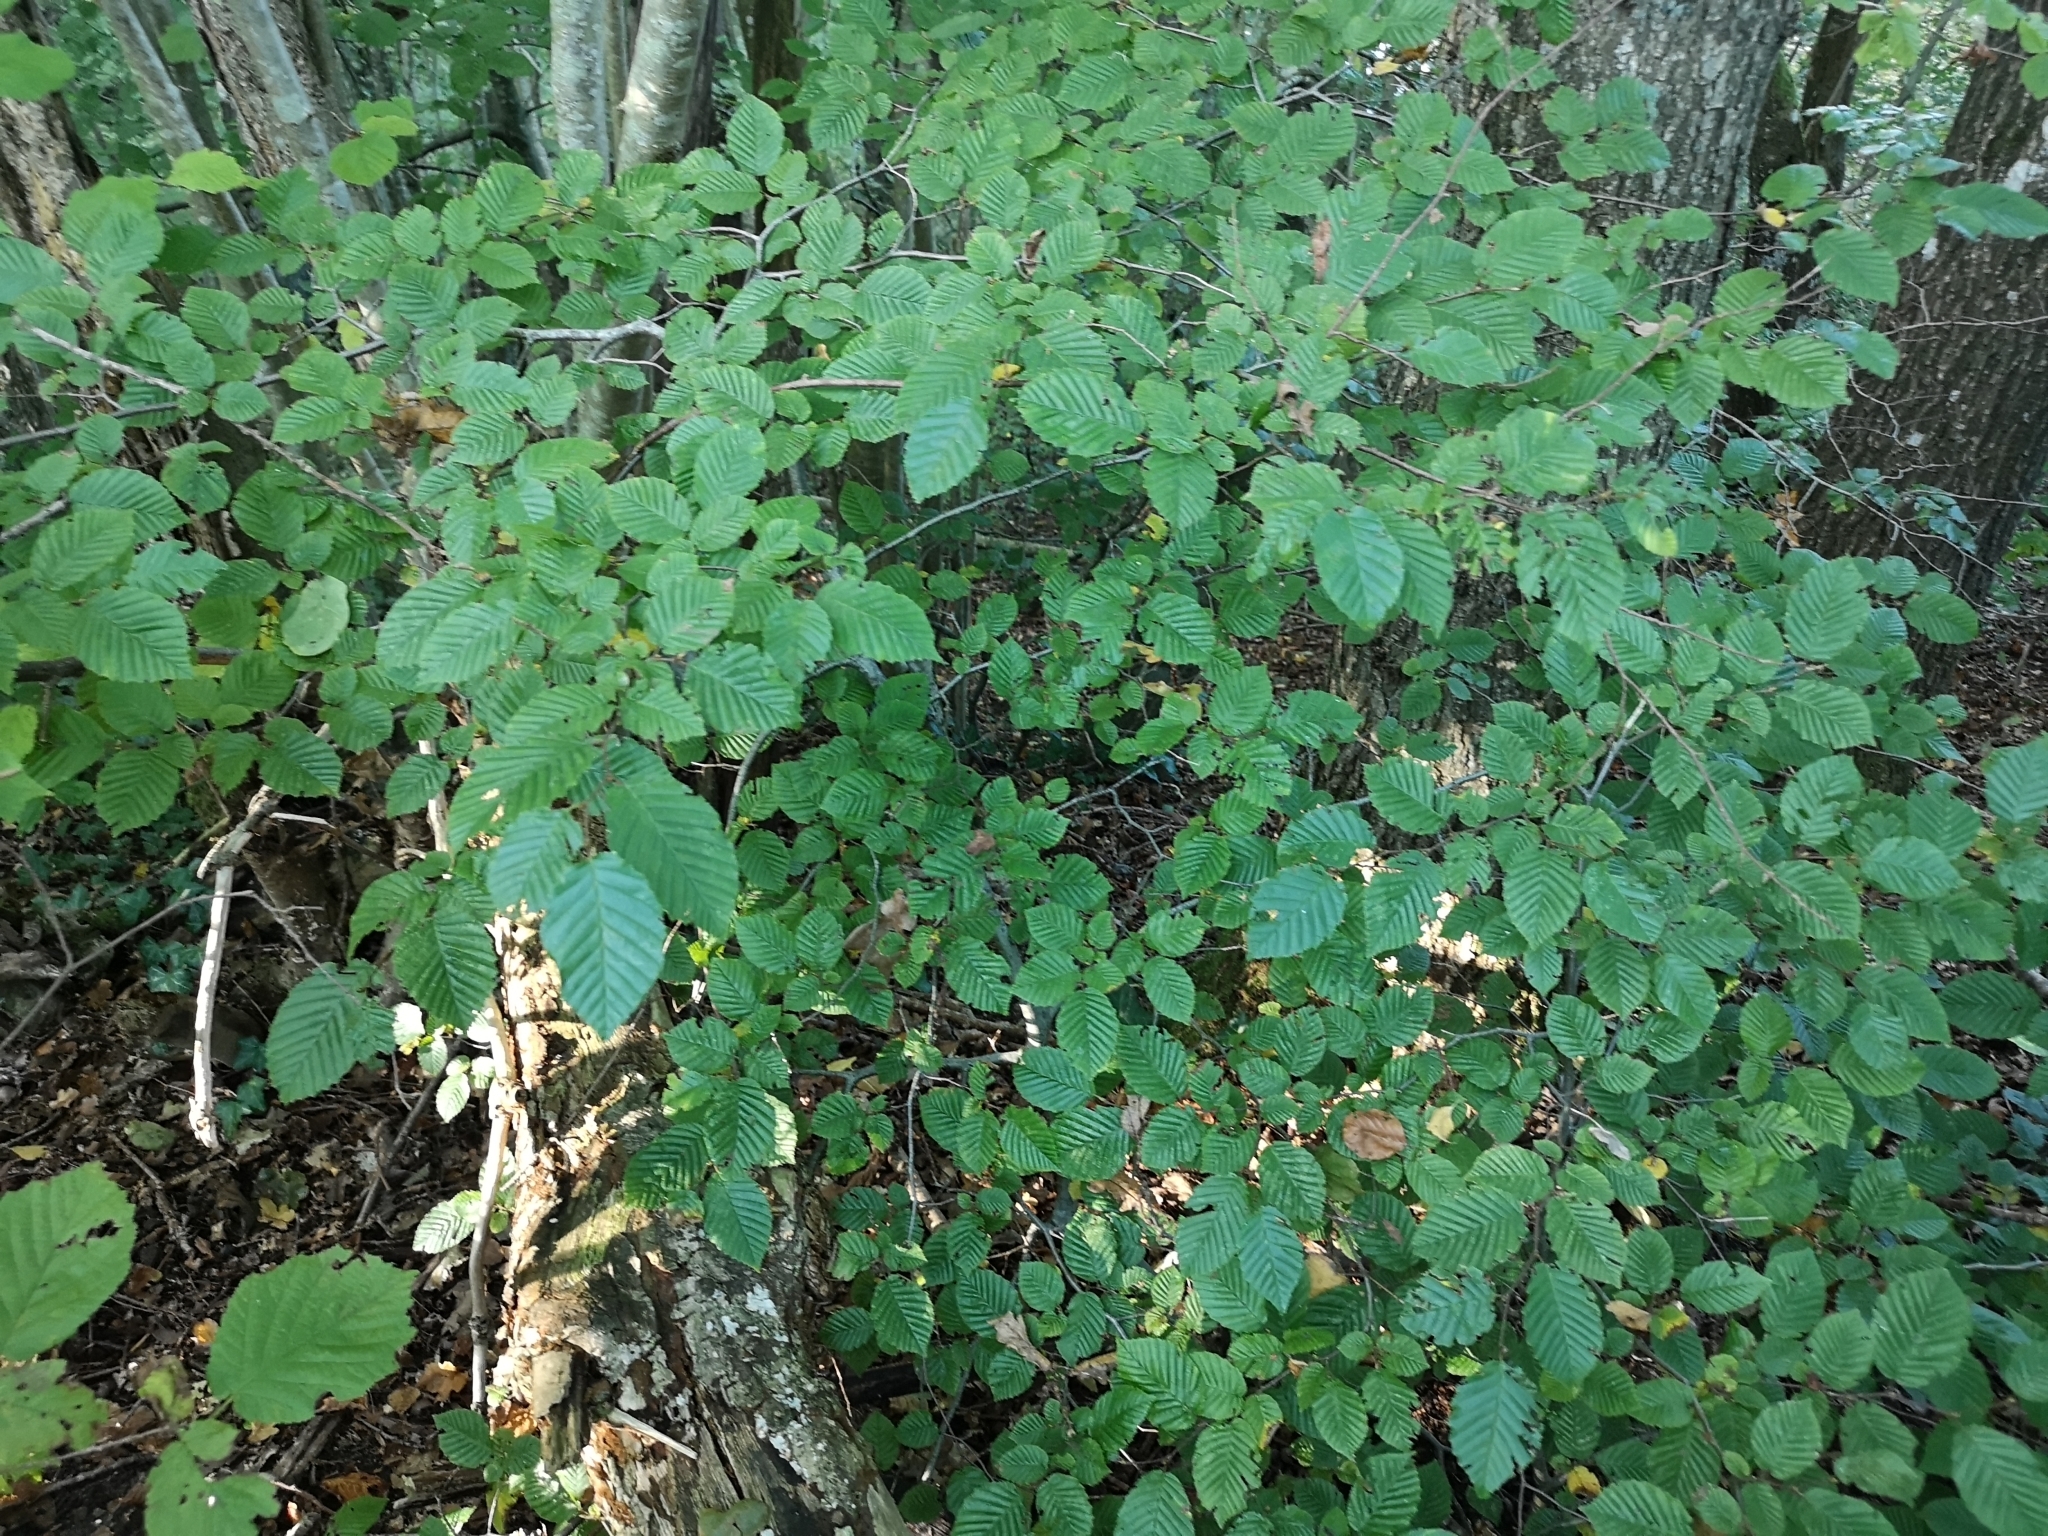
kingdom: Plantae
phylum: Tracheophyta
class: Magnoliopsida
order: Fagales
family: Betulaceae
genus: Carpinus
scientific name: Carpinus betulus
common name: Hornbeam
